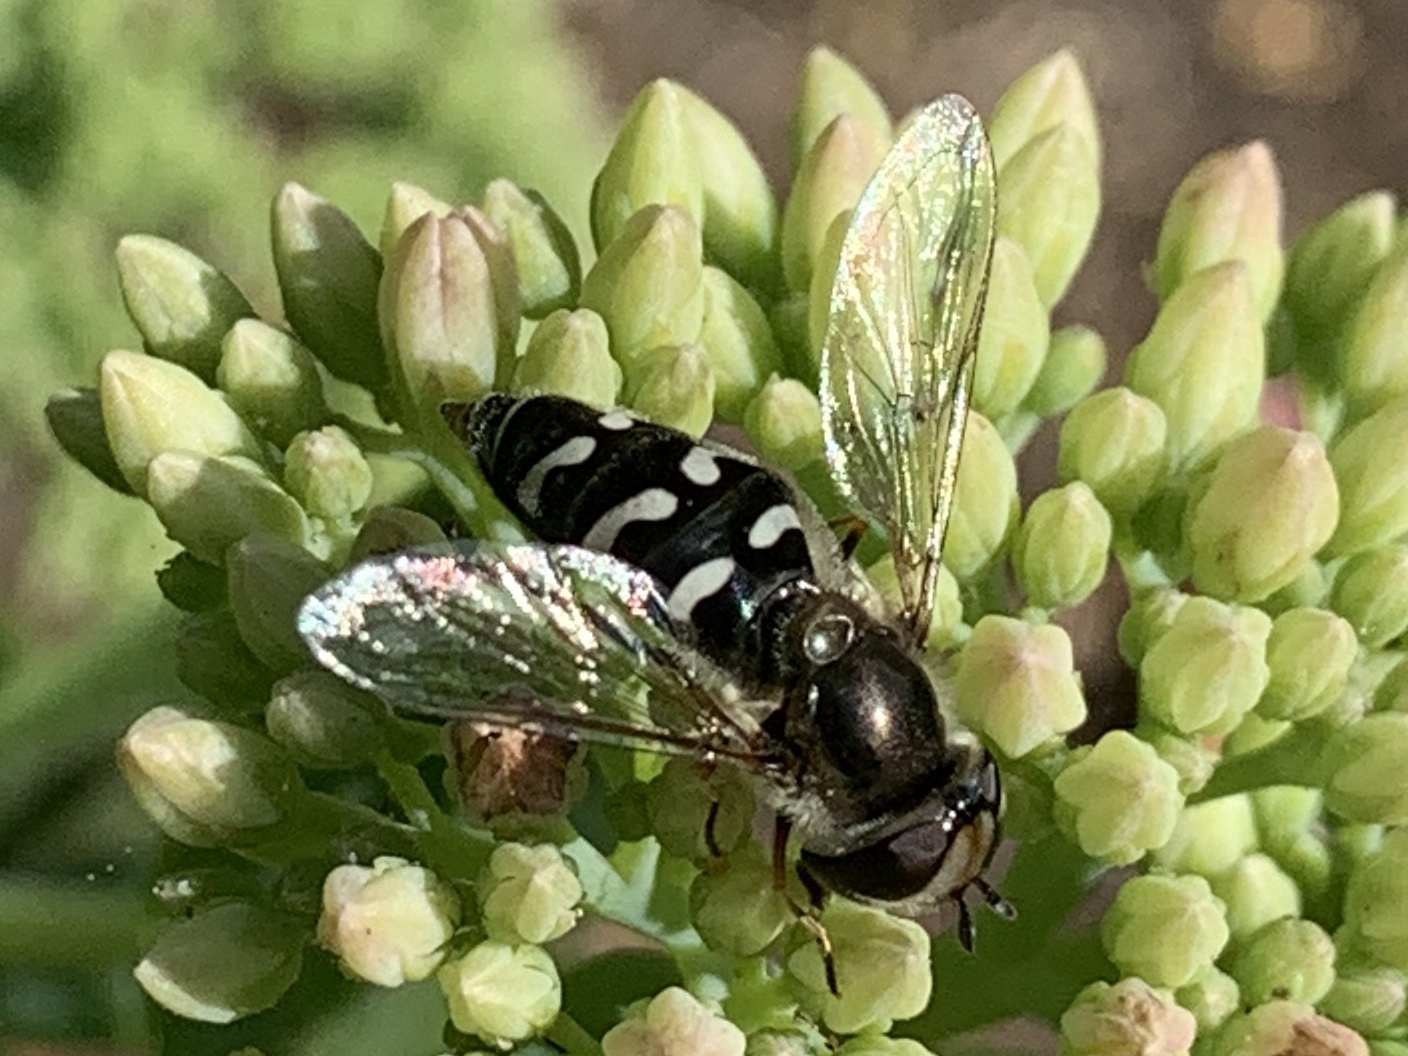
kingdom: Animalia
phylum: Arthropoda
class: Insecta
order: Diptera
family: Syrphidae
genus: Scaeva
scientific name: Scaeva affinis
